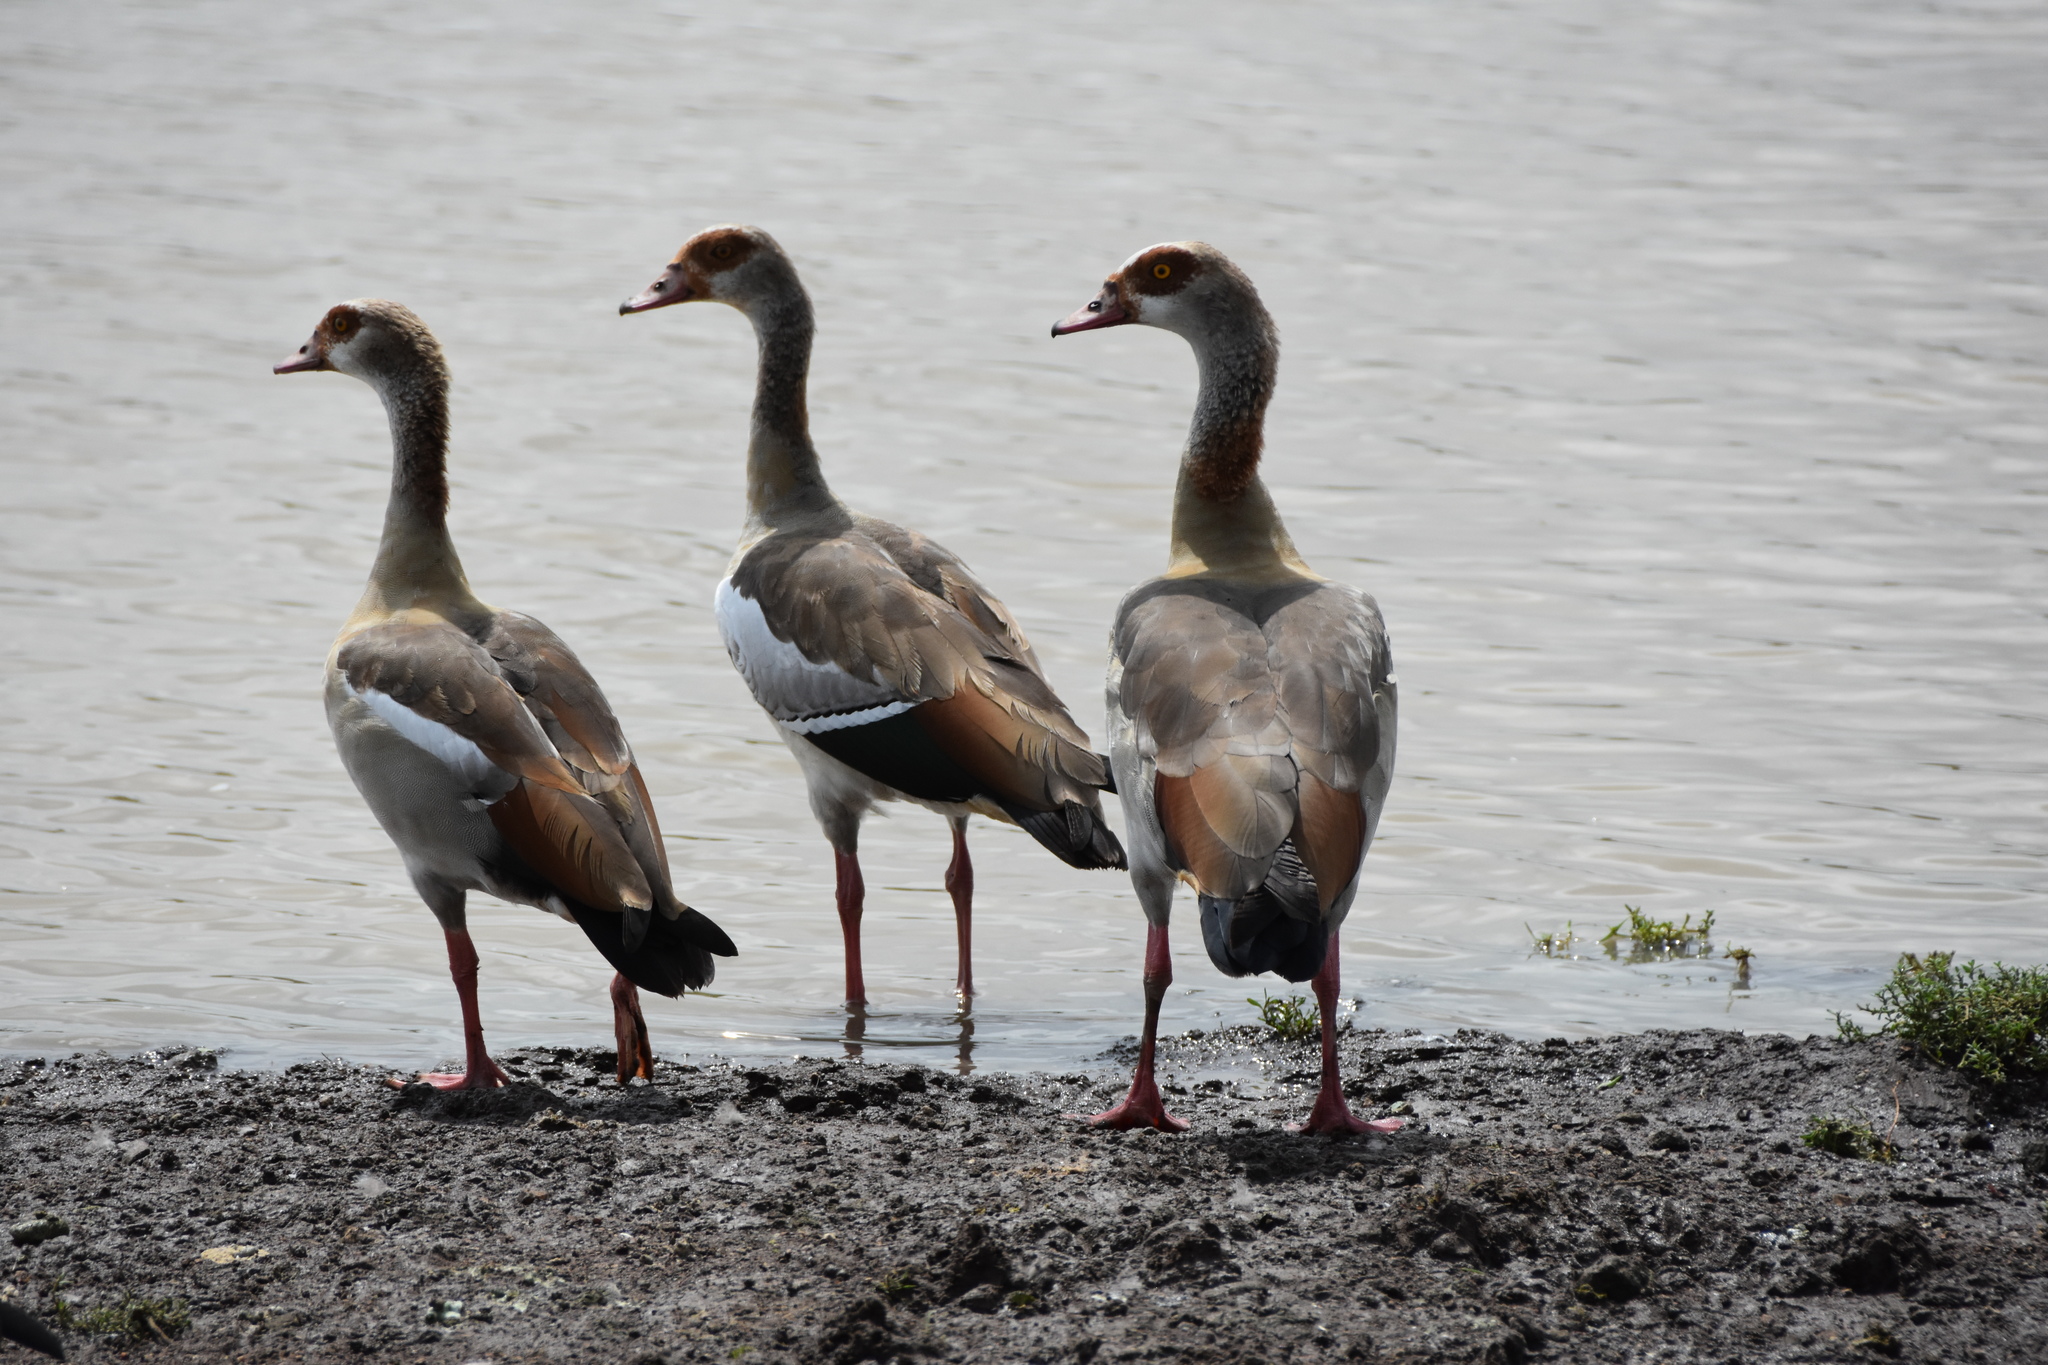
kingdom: Animalia
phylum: Chordata
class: Aves
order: Anseriformes
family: Anatidae
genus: Alopochen
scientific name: Alopochen aegyptiaca
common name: Egyptian goose
